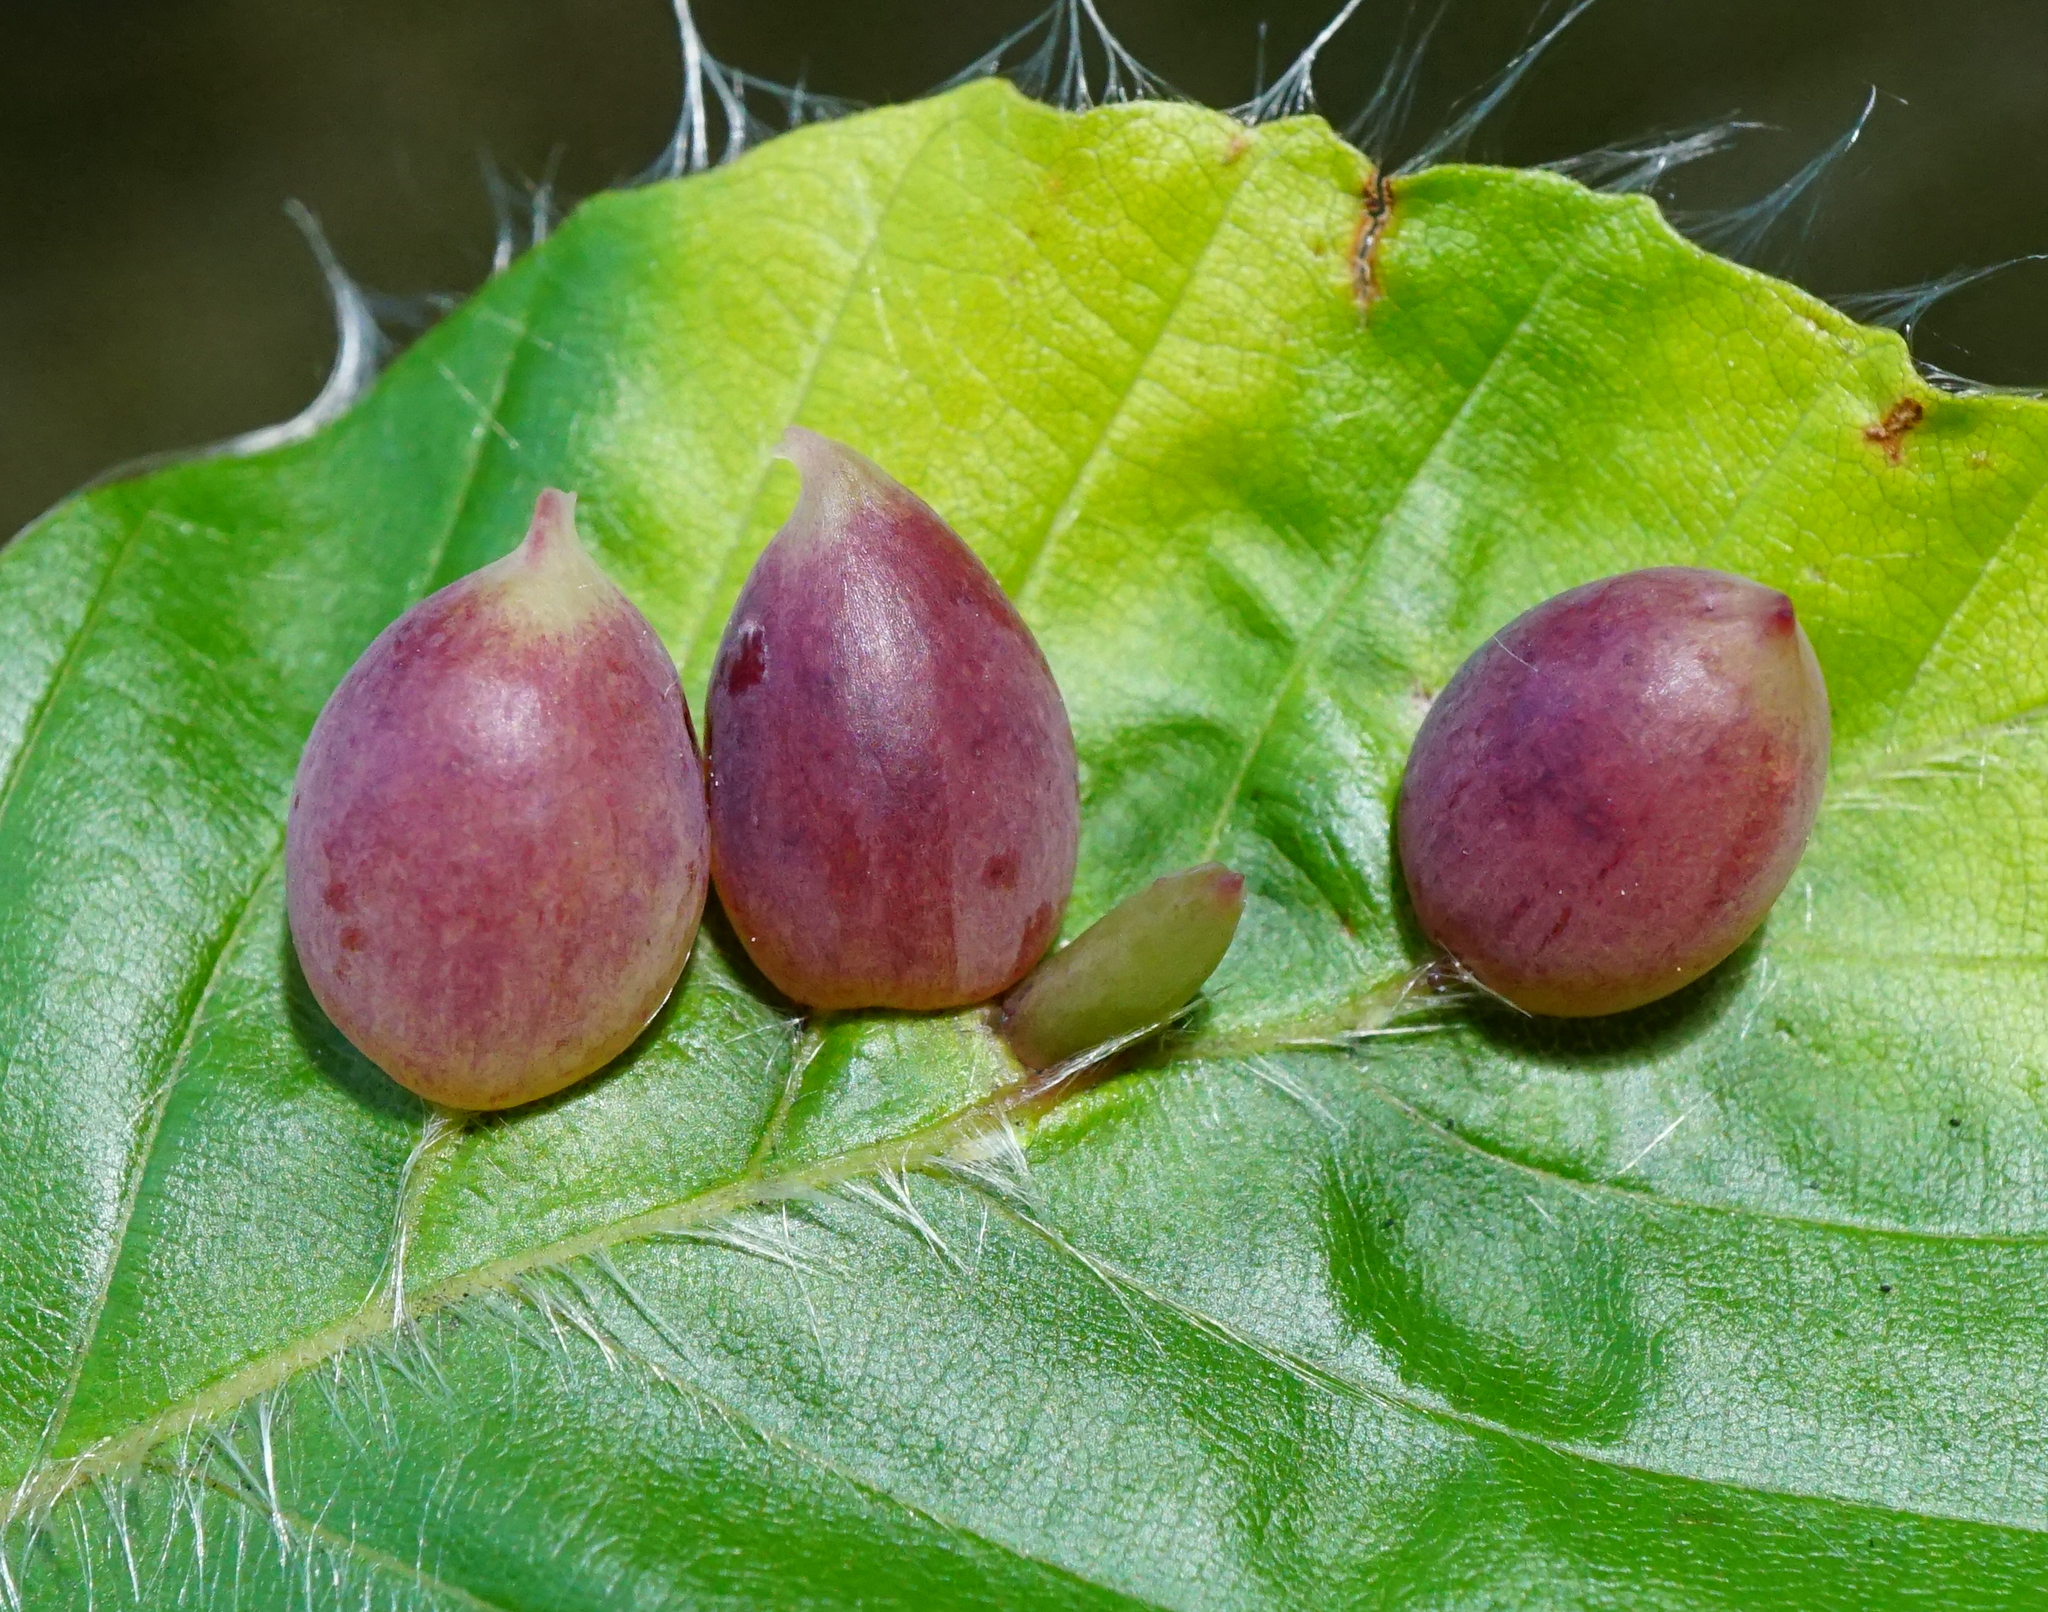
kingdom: Animalia
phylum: Arthropoda
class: Insecta
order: Diptera
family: Cecidomyiidae
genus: Mikiola
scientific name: Mikiola fagi
